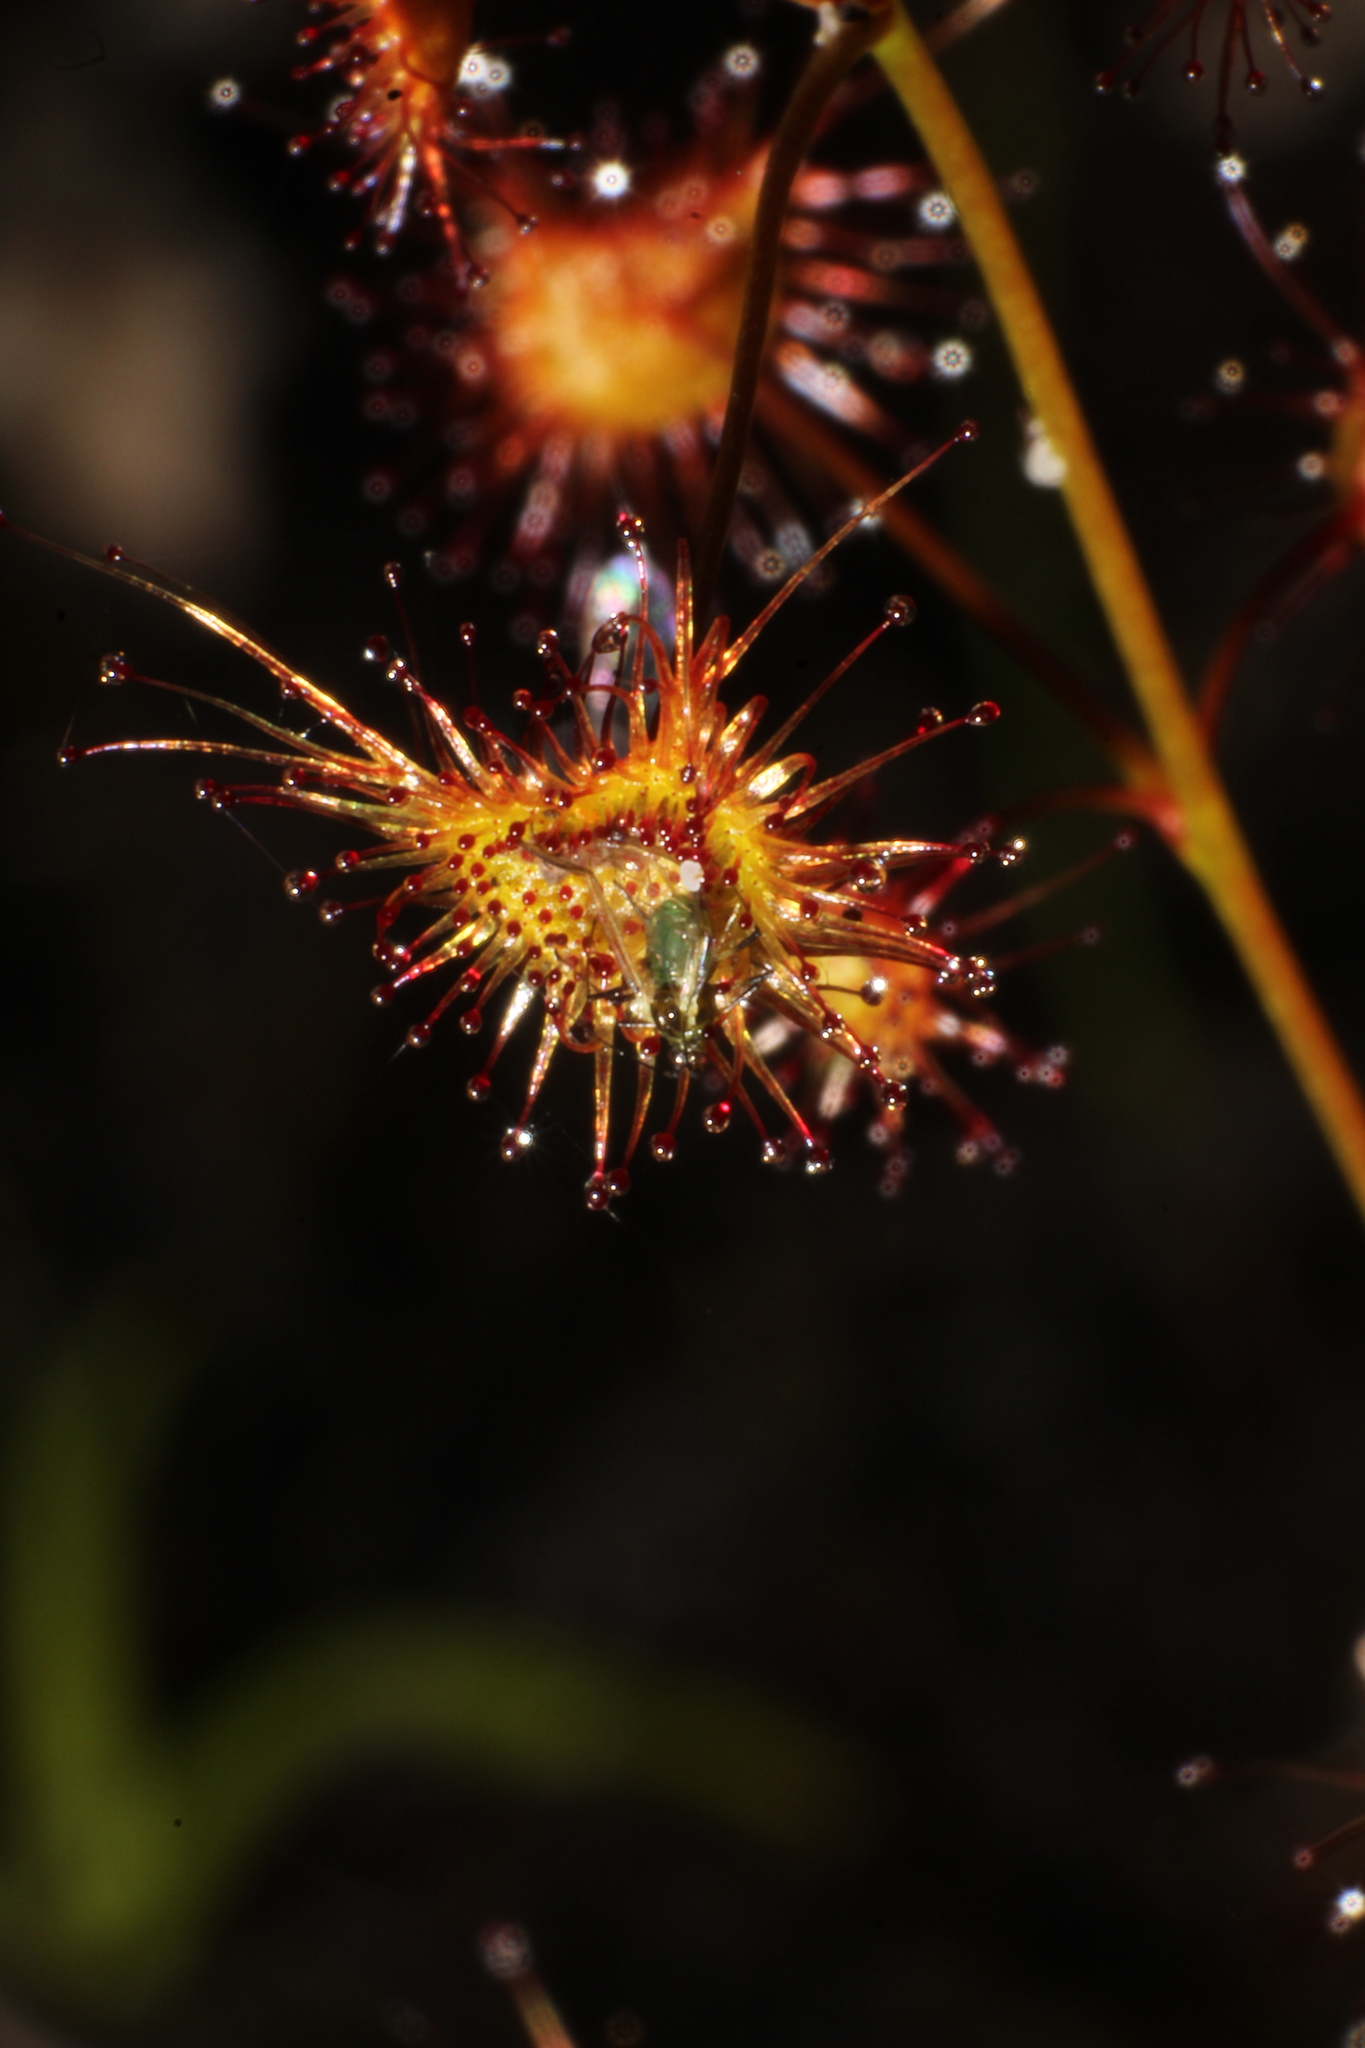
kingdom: Plantae
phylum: Tracheophyta
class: Magnoliopsida
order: Caryophyllales
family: Droseraceae
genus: Drosera
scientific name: Drosera sulphurea
